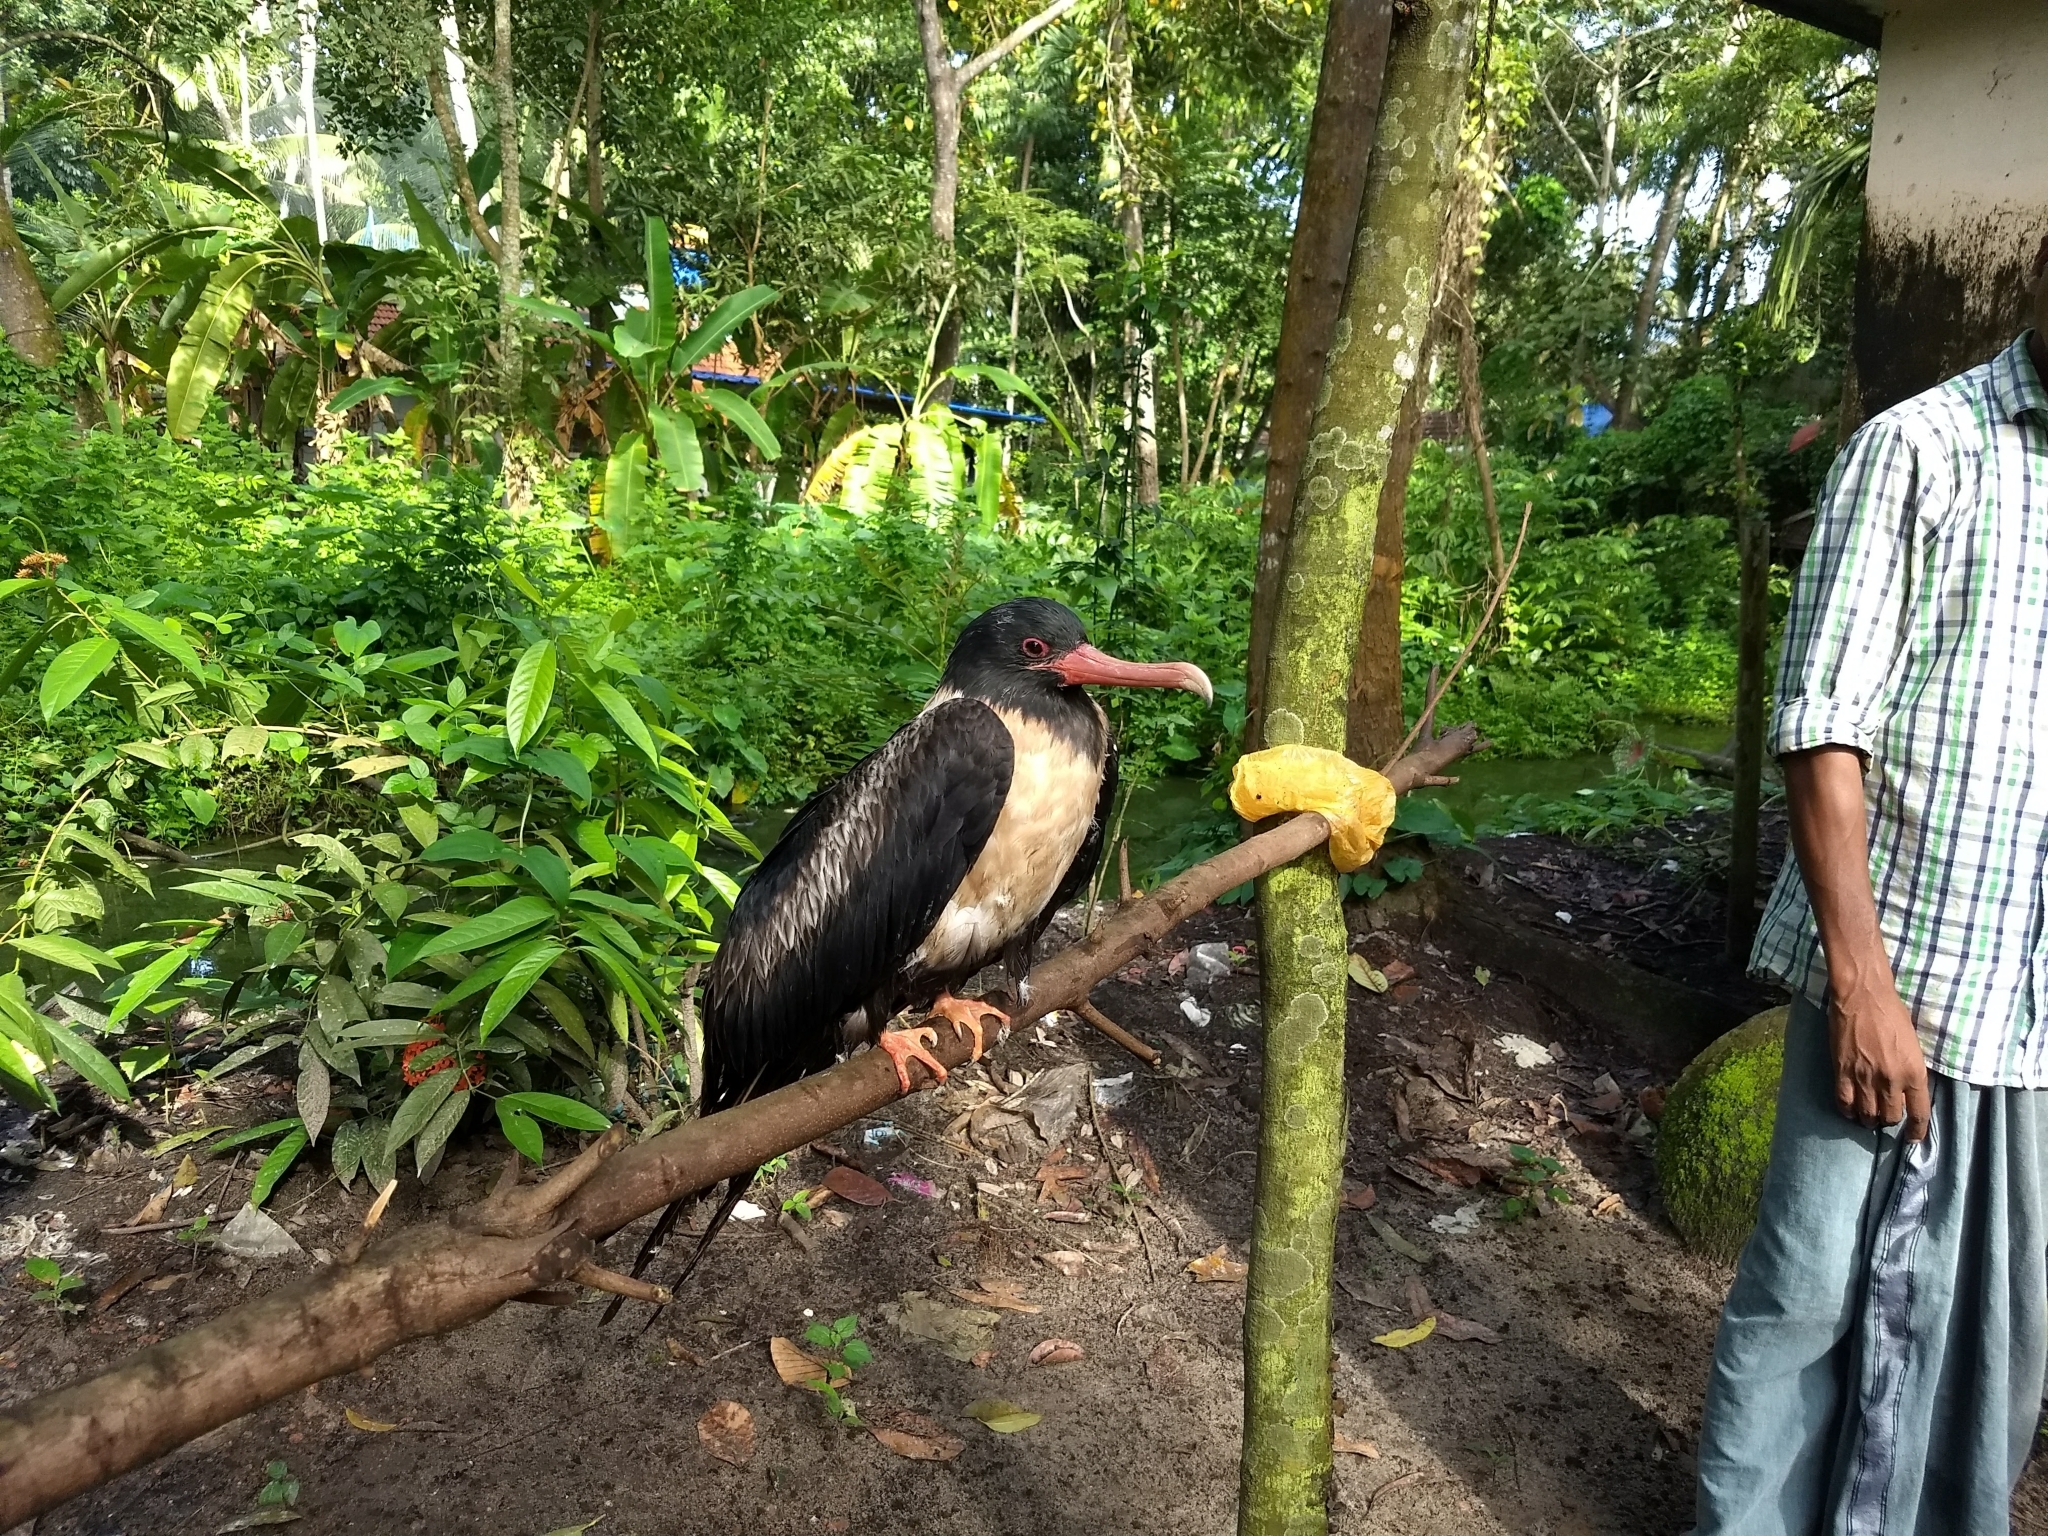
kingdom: Animalia
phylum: Chordata
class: Aves
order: Suliformes
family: Fregatidae
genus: Fregata
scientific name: Fregata ariel
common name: Lesser frigatebird
